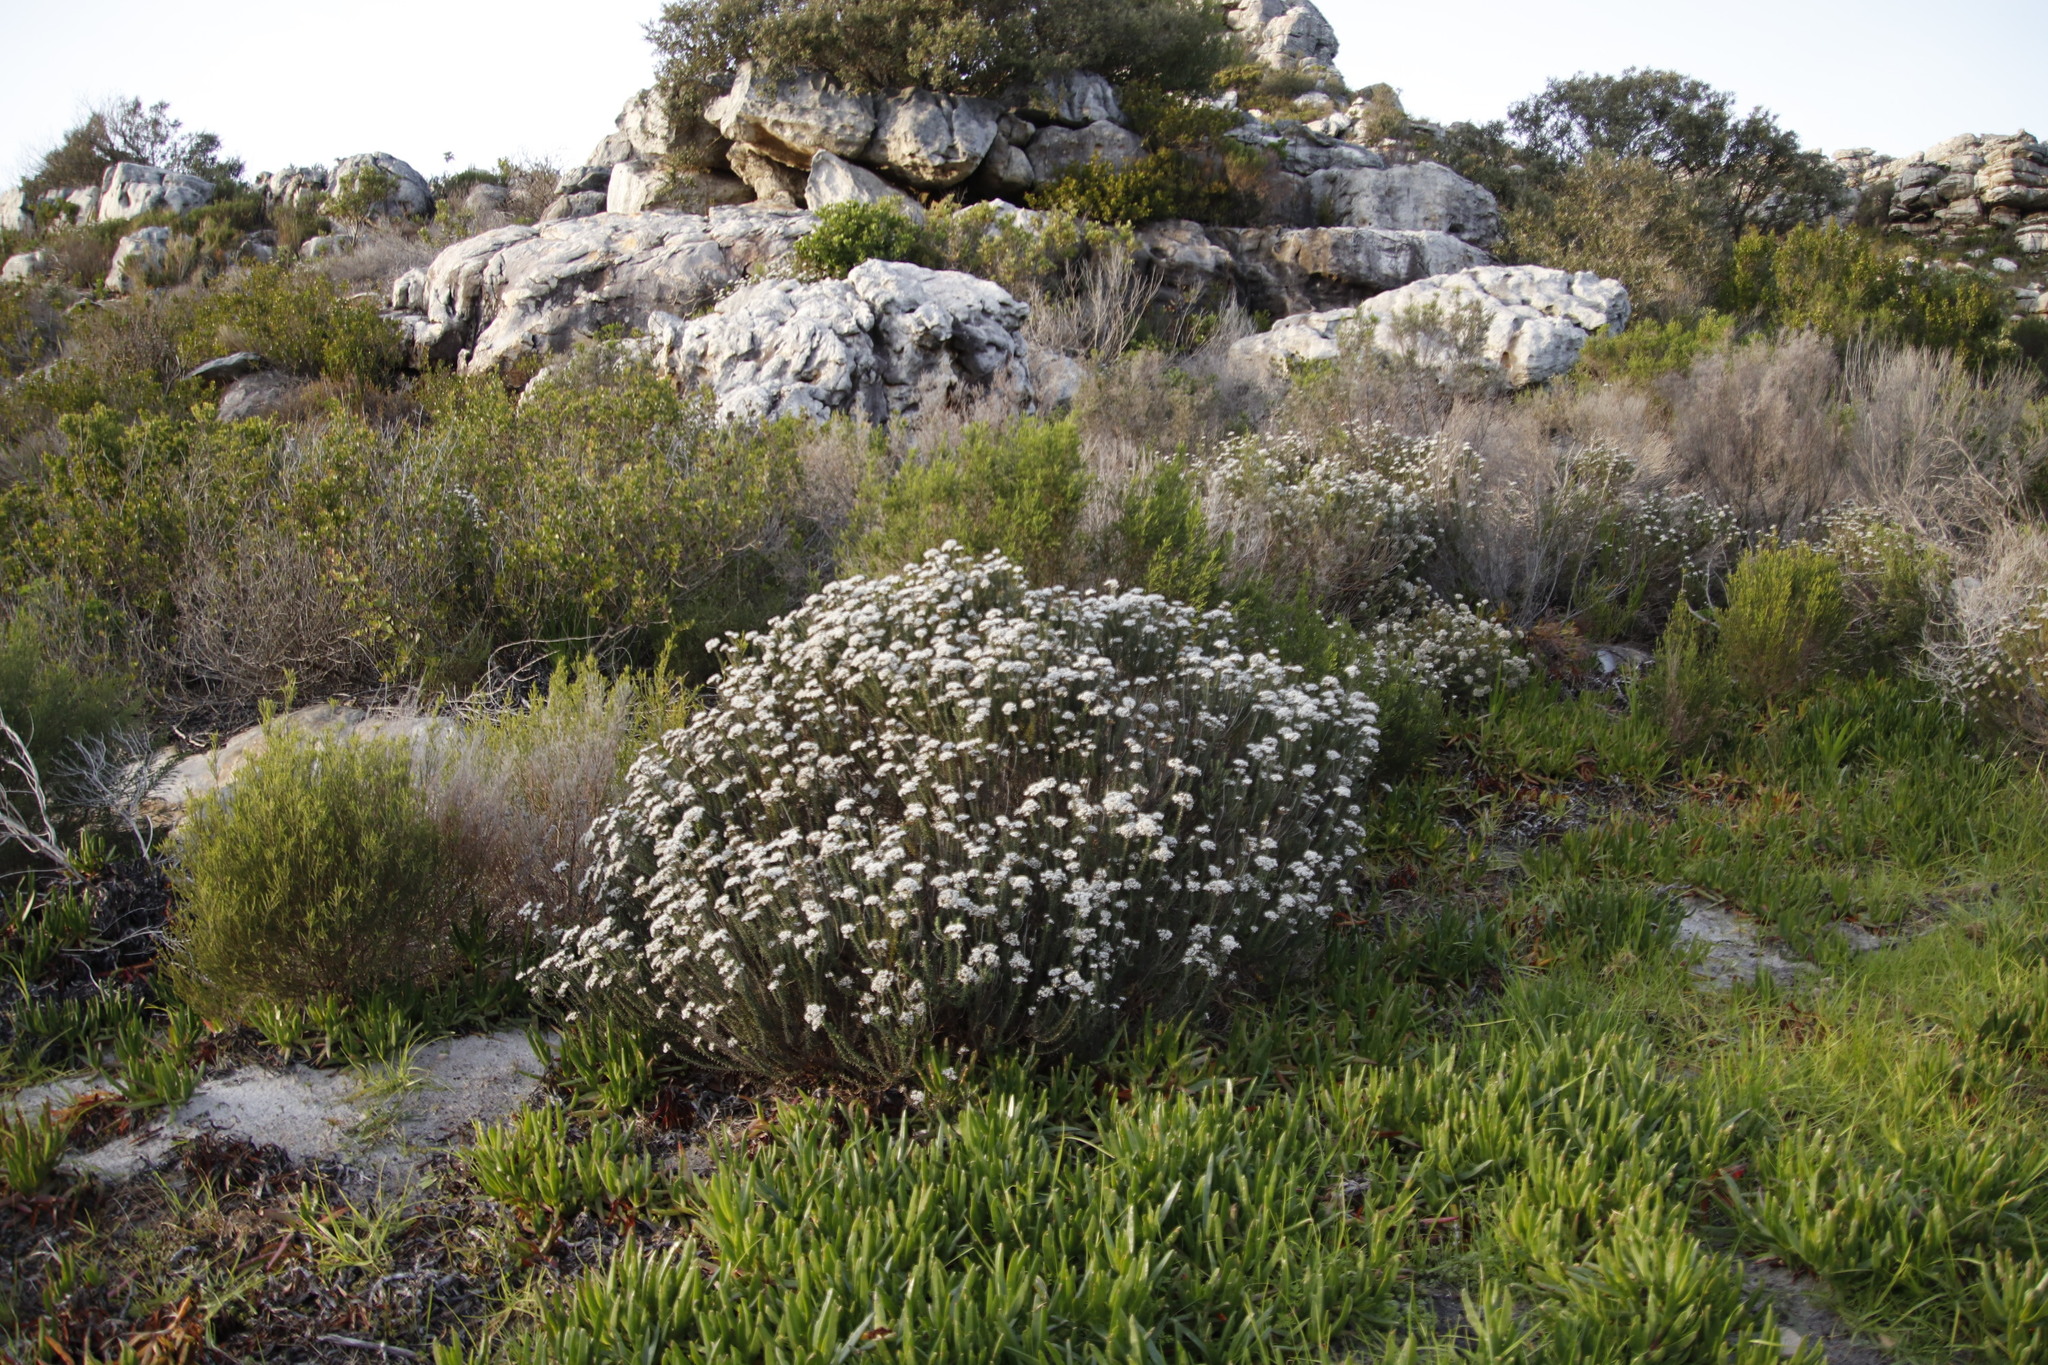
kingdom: Plantae
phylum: Tracheophyta
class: Magnoliopsida
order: Asterales
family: Asteraceae
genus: Metalasia
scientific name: Metalasia densa
